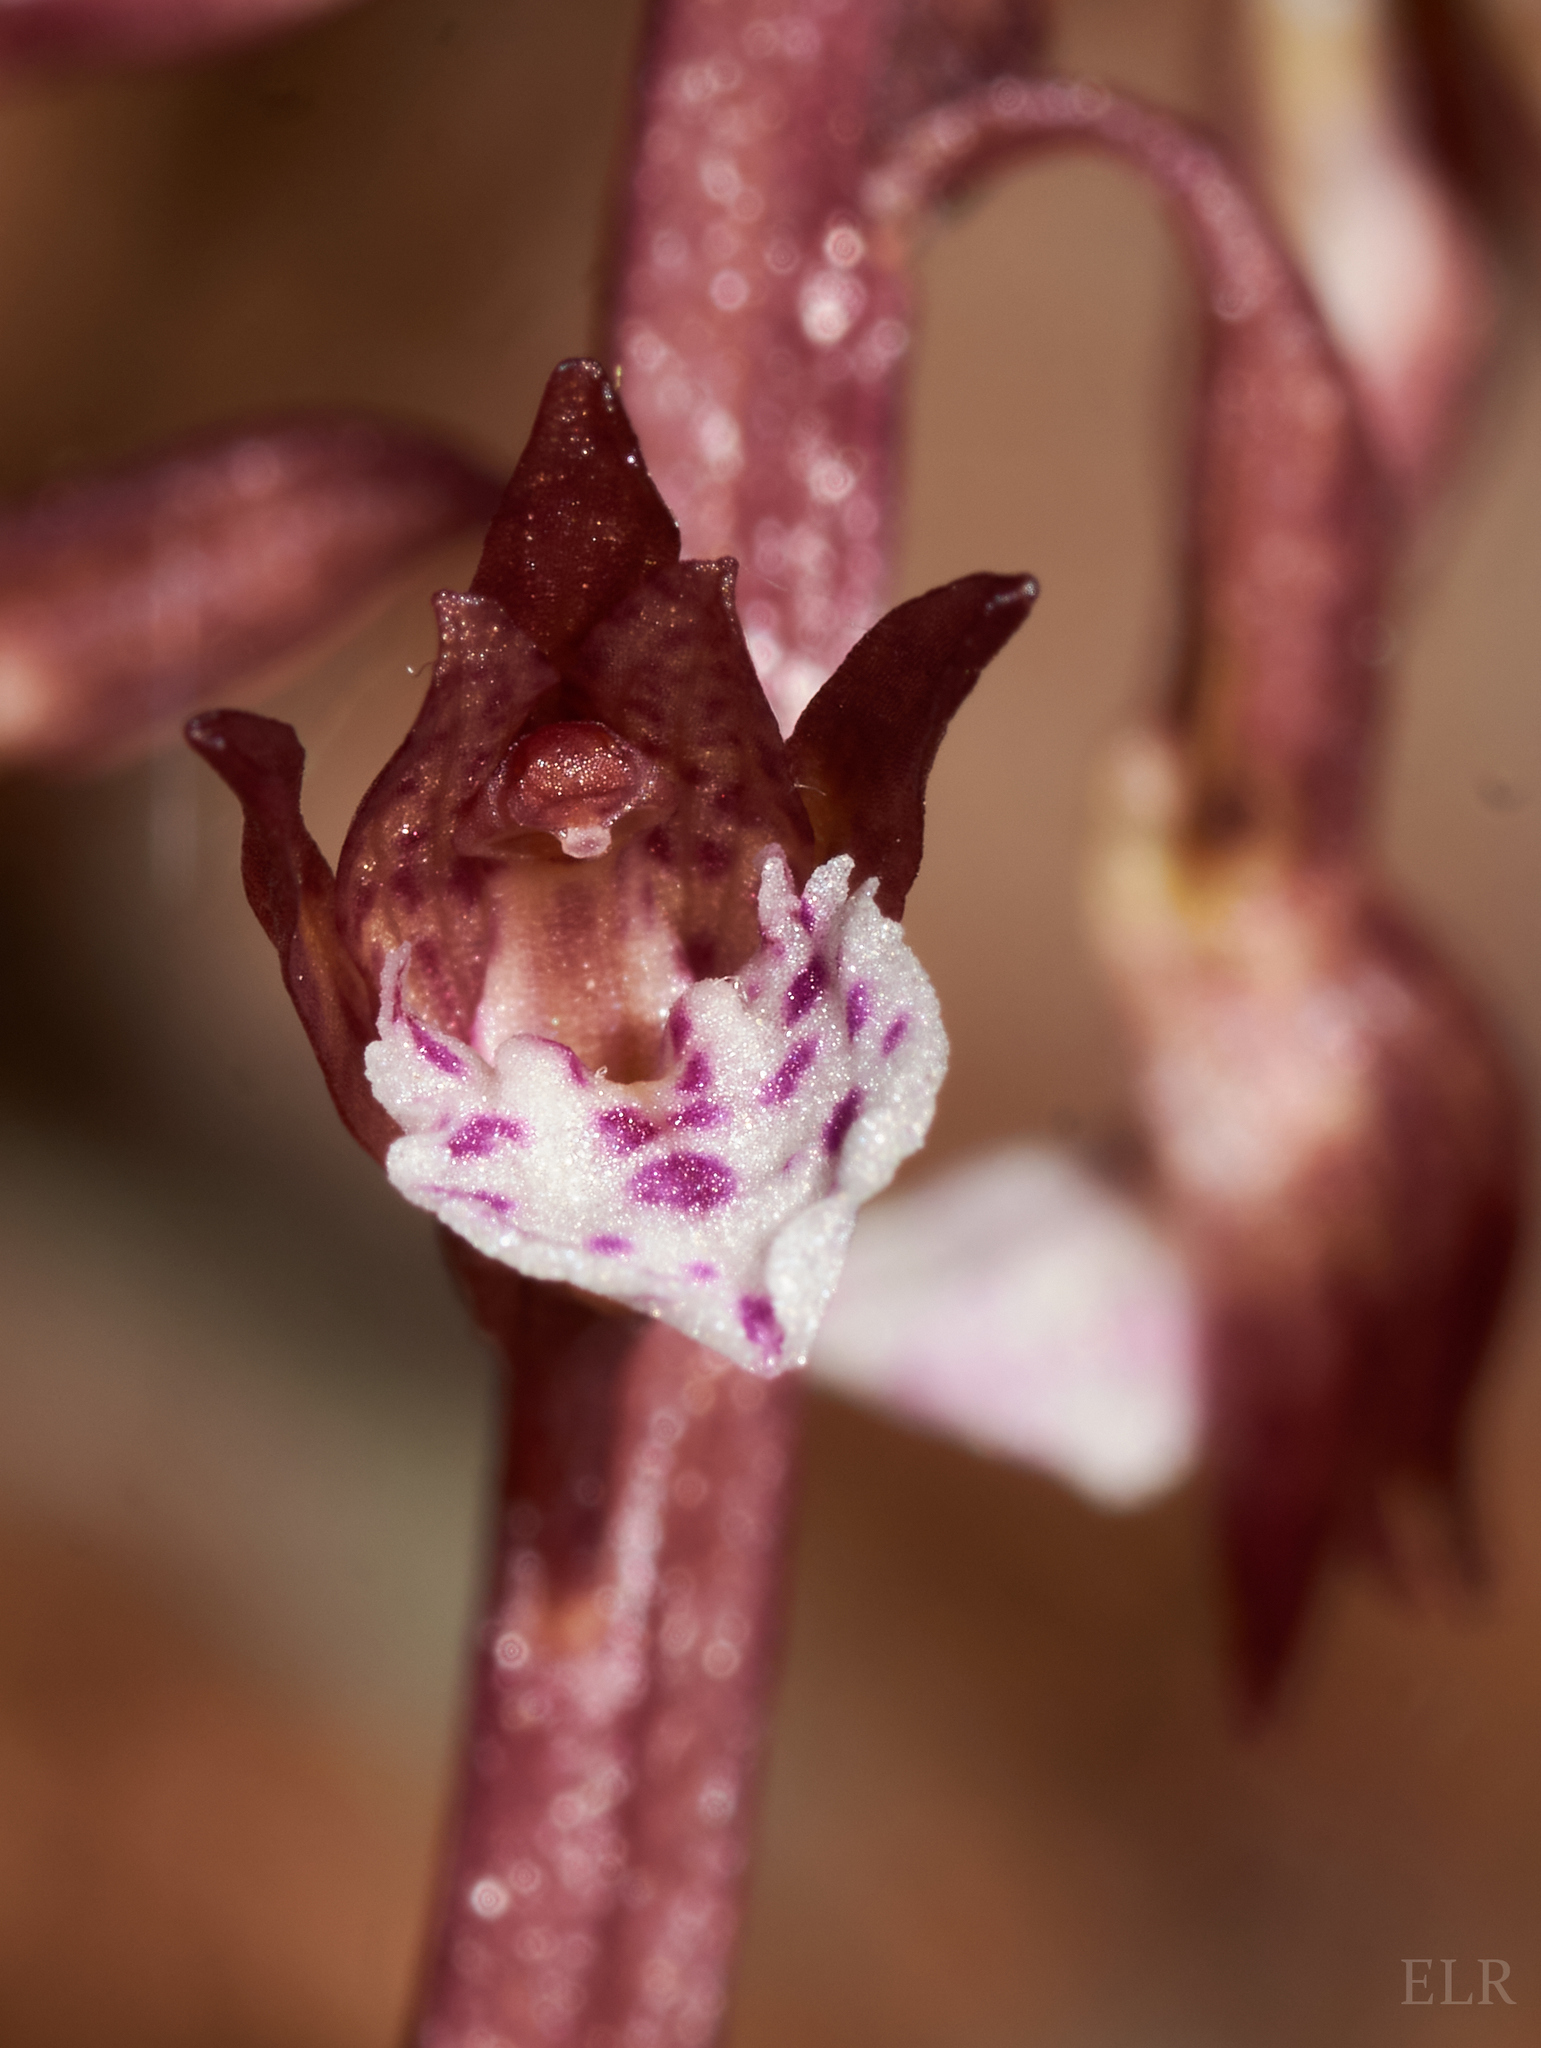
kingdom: Plantae
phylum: Tracheophyta
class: Liliopsida
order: Asparagales
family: Orchidaceae
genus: Corallorhiza
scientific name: Corallorhiza wisteriana
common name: Spring coralroot
